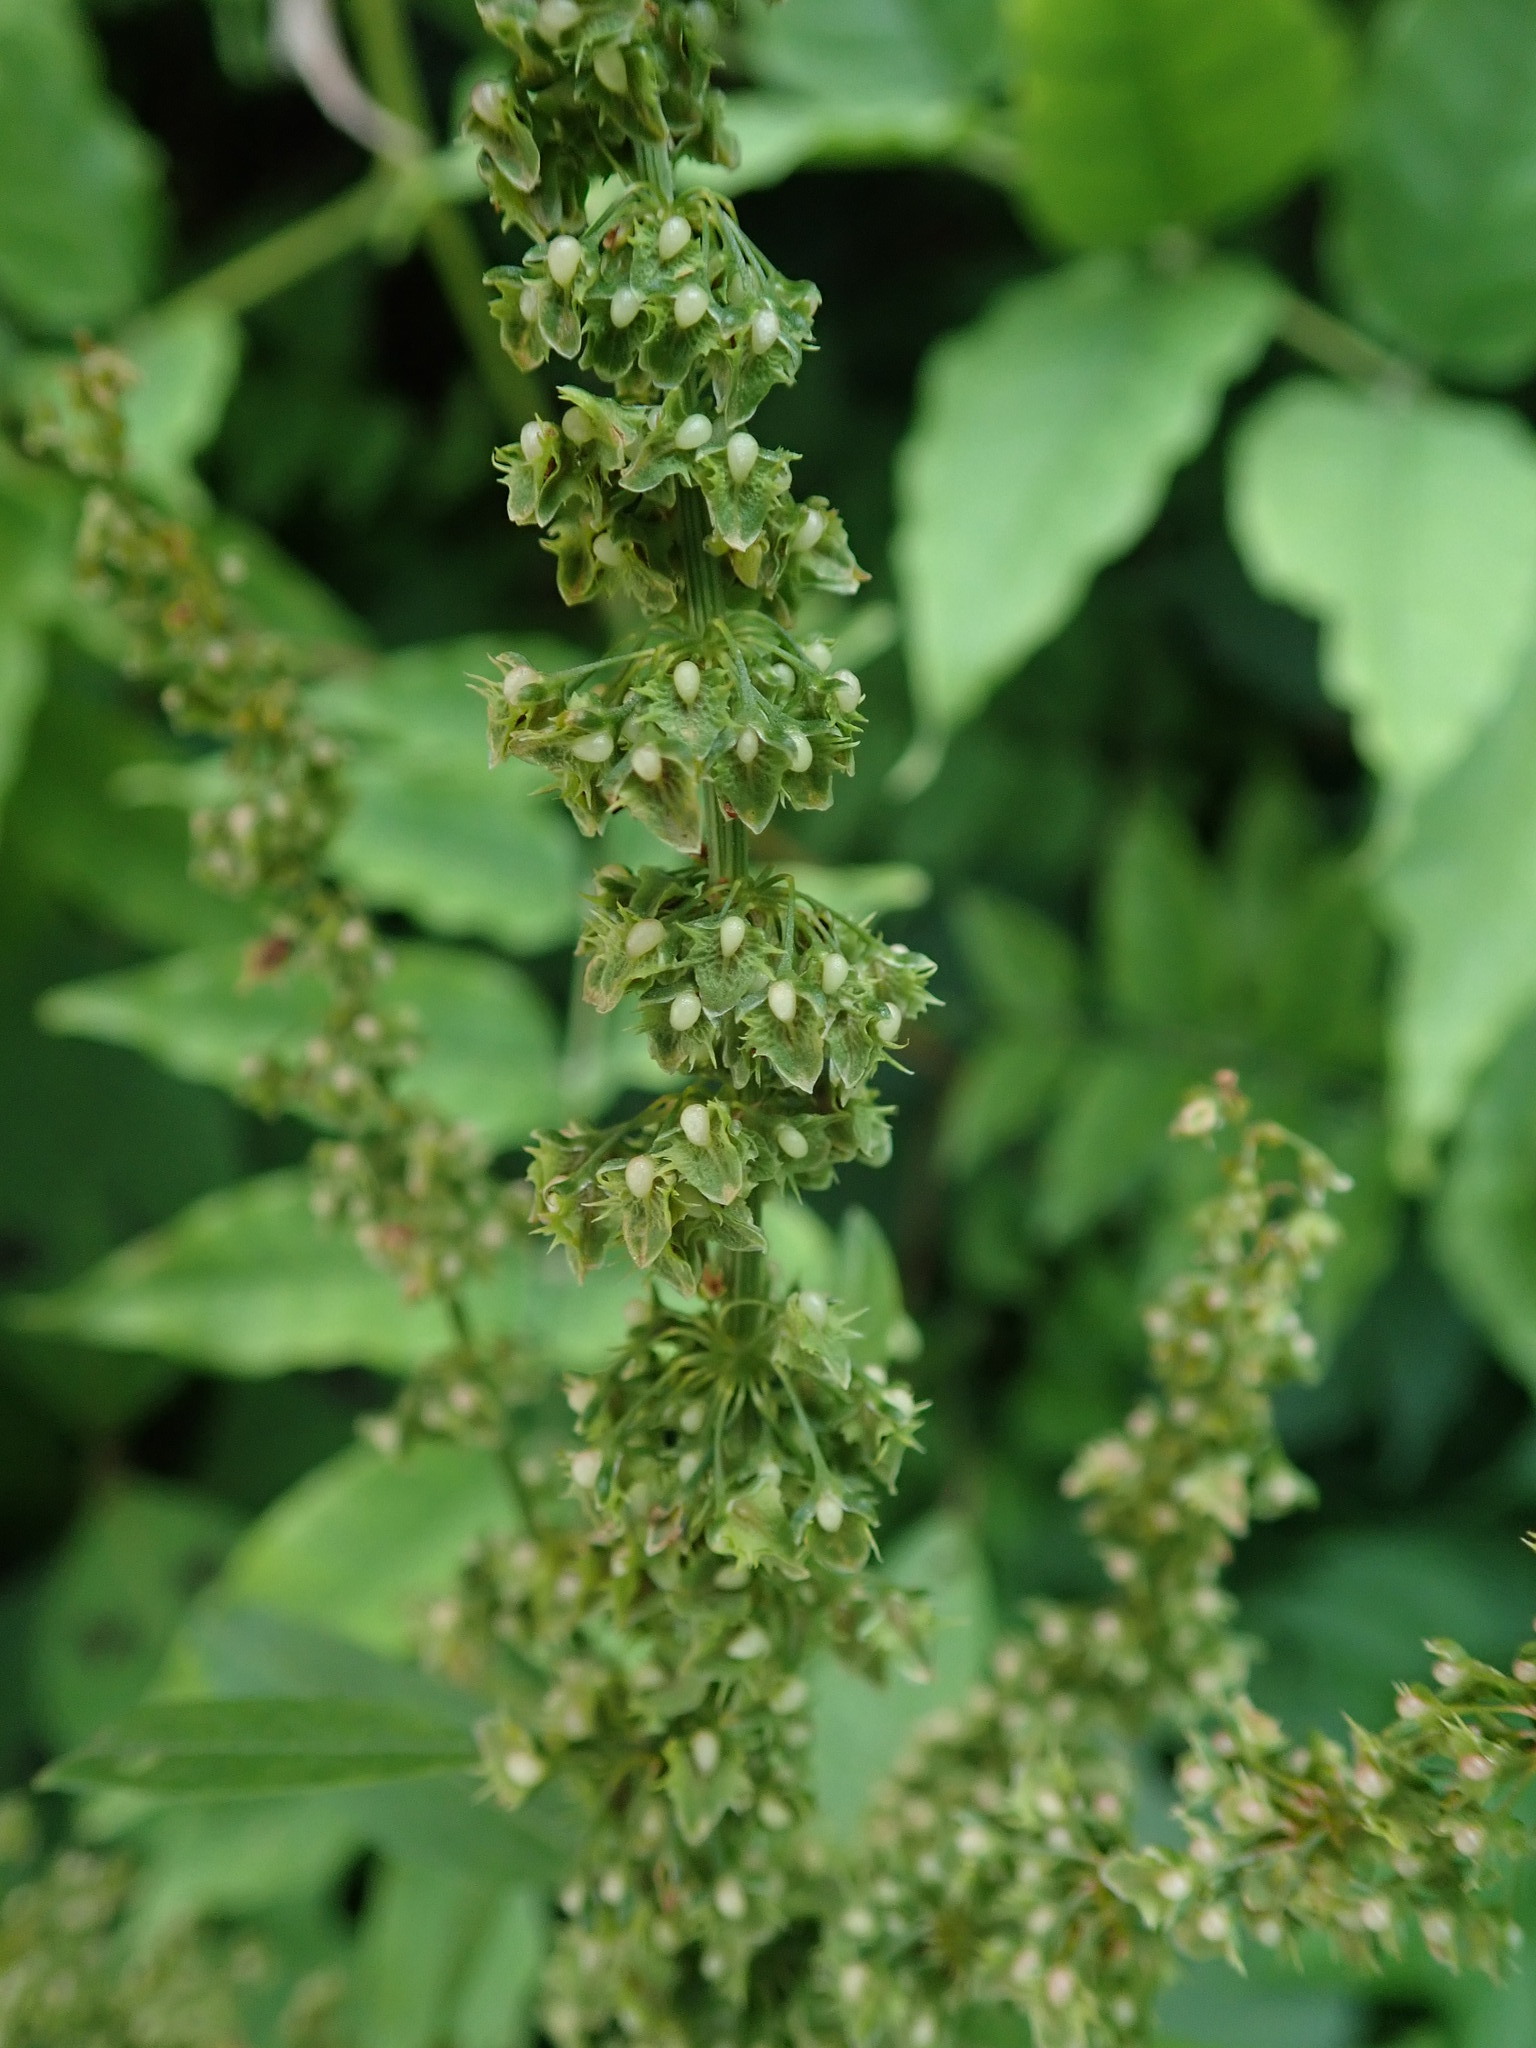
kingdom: Plantae
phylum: Tracheophyta
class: Magnoliopsida
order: Caryophyllales
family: Polygonaceae
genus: Rumex
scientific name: Rumex obtusifolius
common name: Bitter dock
